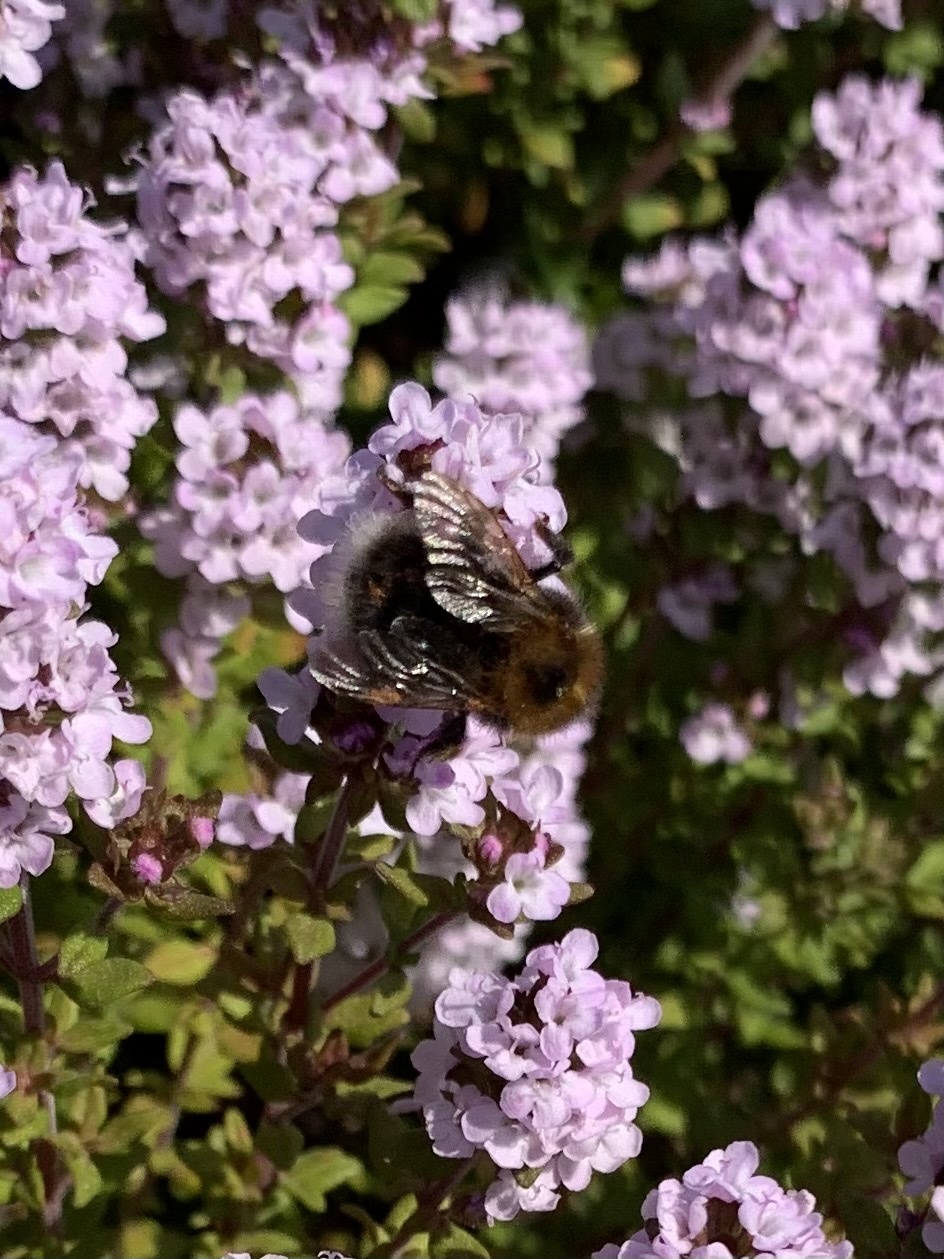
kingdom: Animalia
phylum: Arthropoda
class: Insecta
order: Hymenoptera
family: Apidae
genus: Bombus
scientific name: Bombus hypnorum
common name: New garden bumblebee
